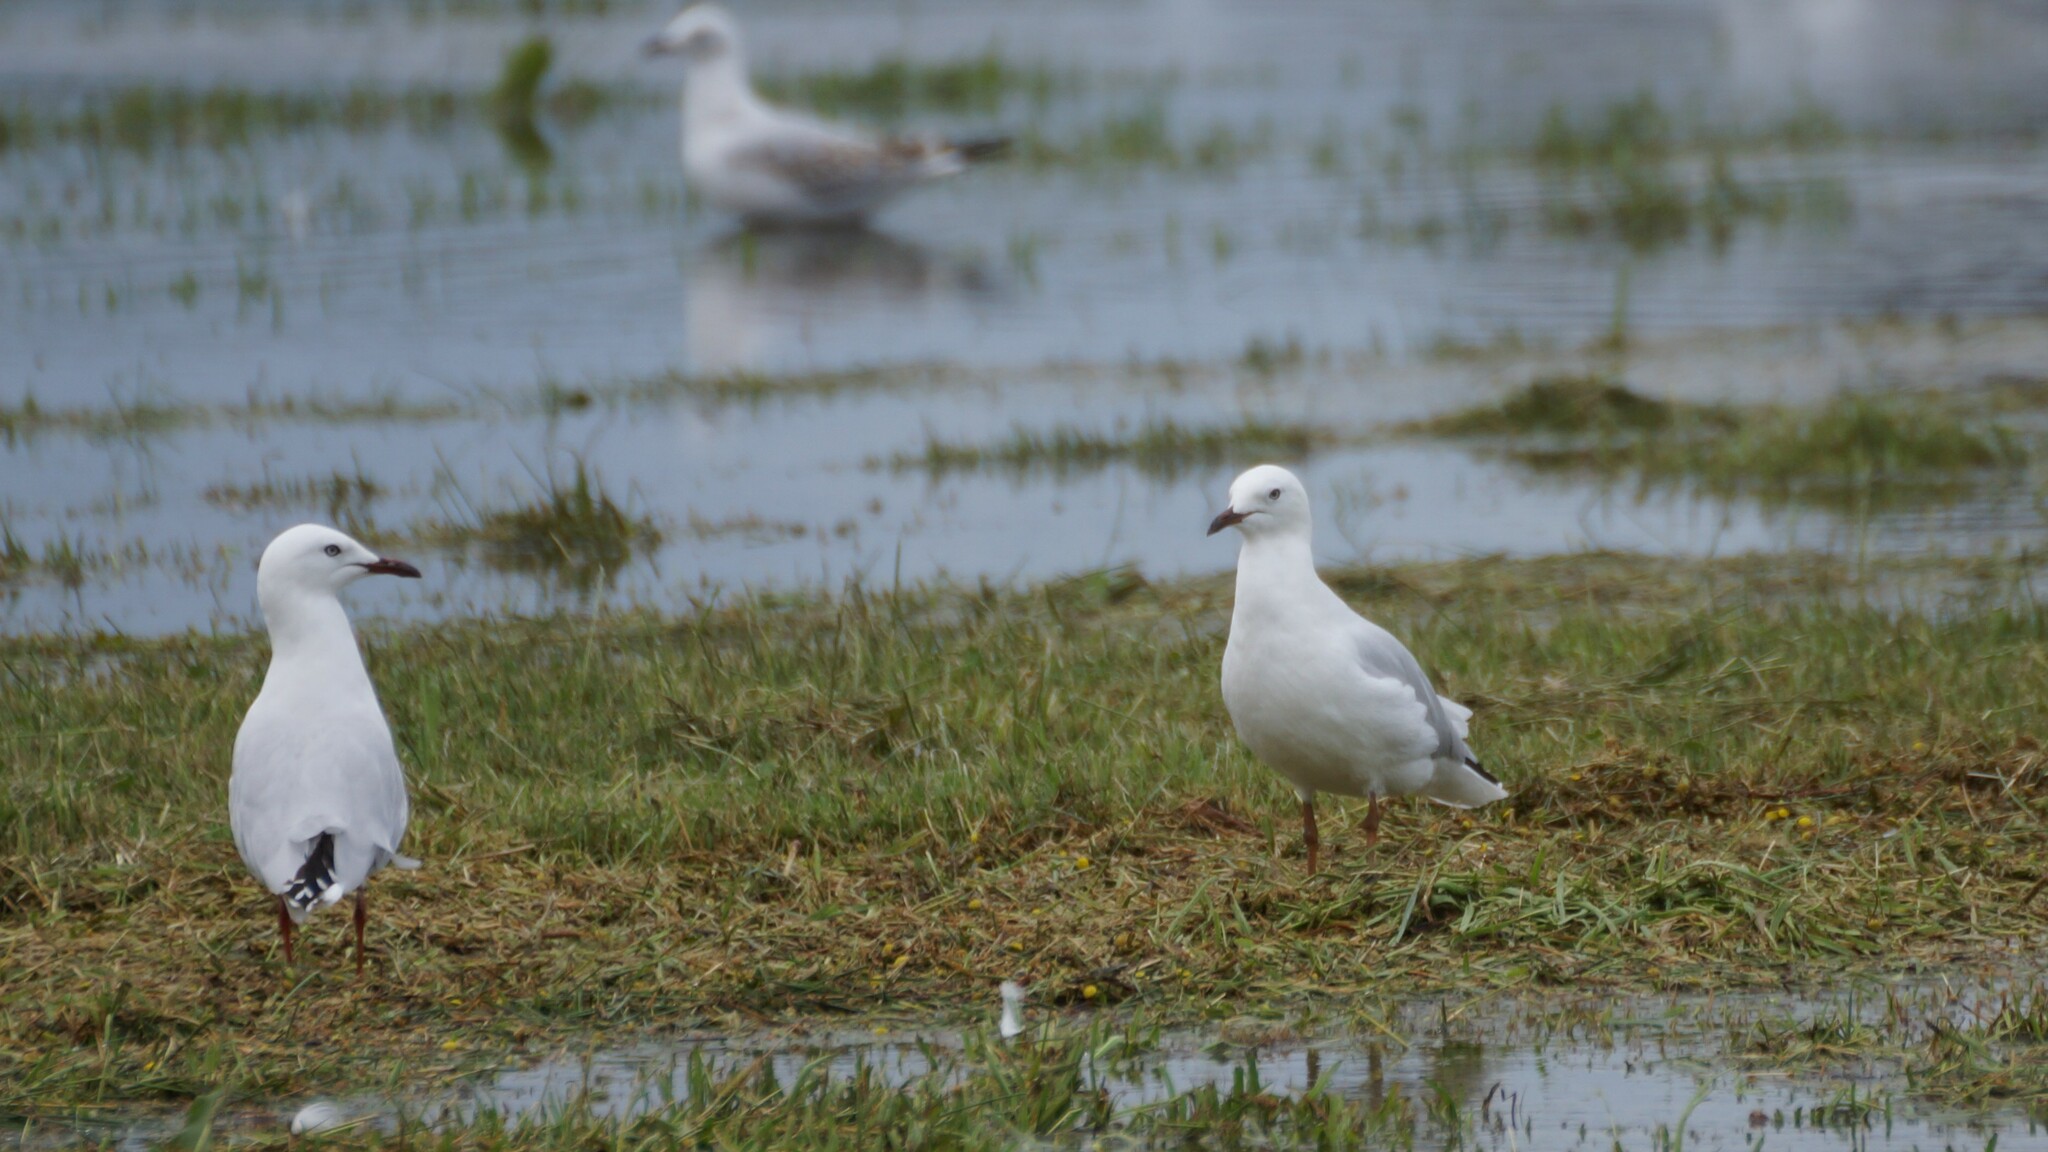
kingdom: Animalia
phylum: Chordata
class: Aves
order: Charadriiformes
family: Laridae
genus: Chroicocephalus
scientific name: Chroicocephalus novaehollandiae
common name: Silver gull
